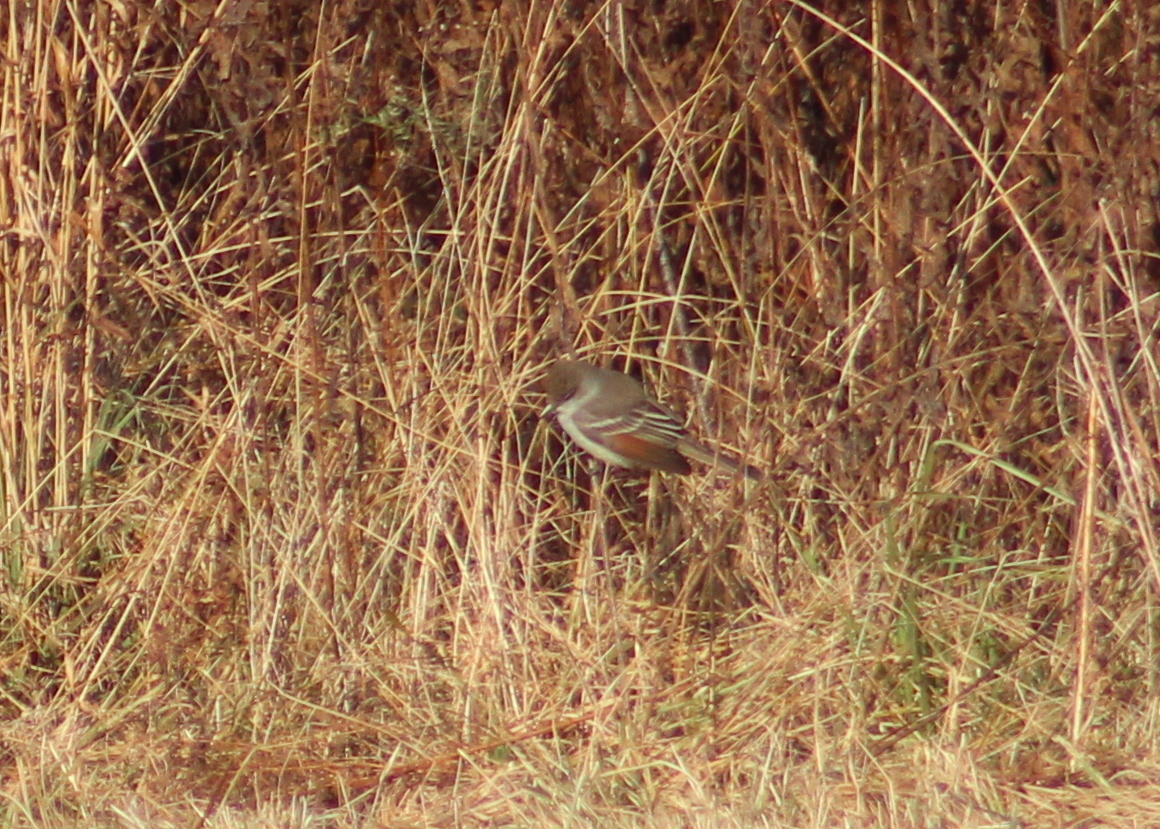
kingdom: Animalia
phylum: Chordata
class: Aves
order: Passeriformes
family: Tyrannidae
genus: Myiarchus
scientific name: Myiarchus cinerascens
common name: Ash-throated flycatcher
